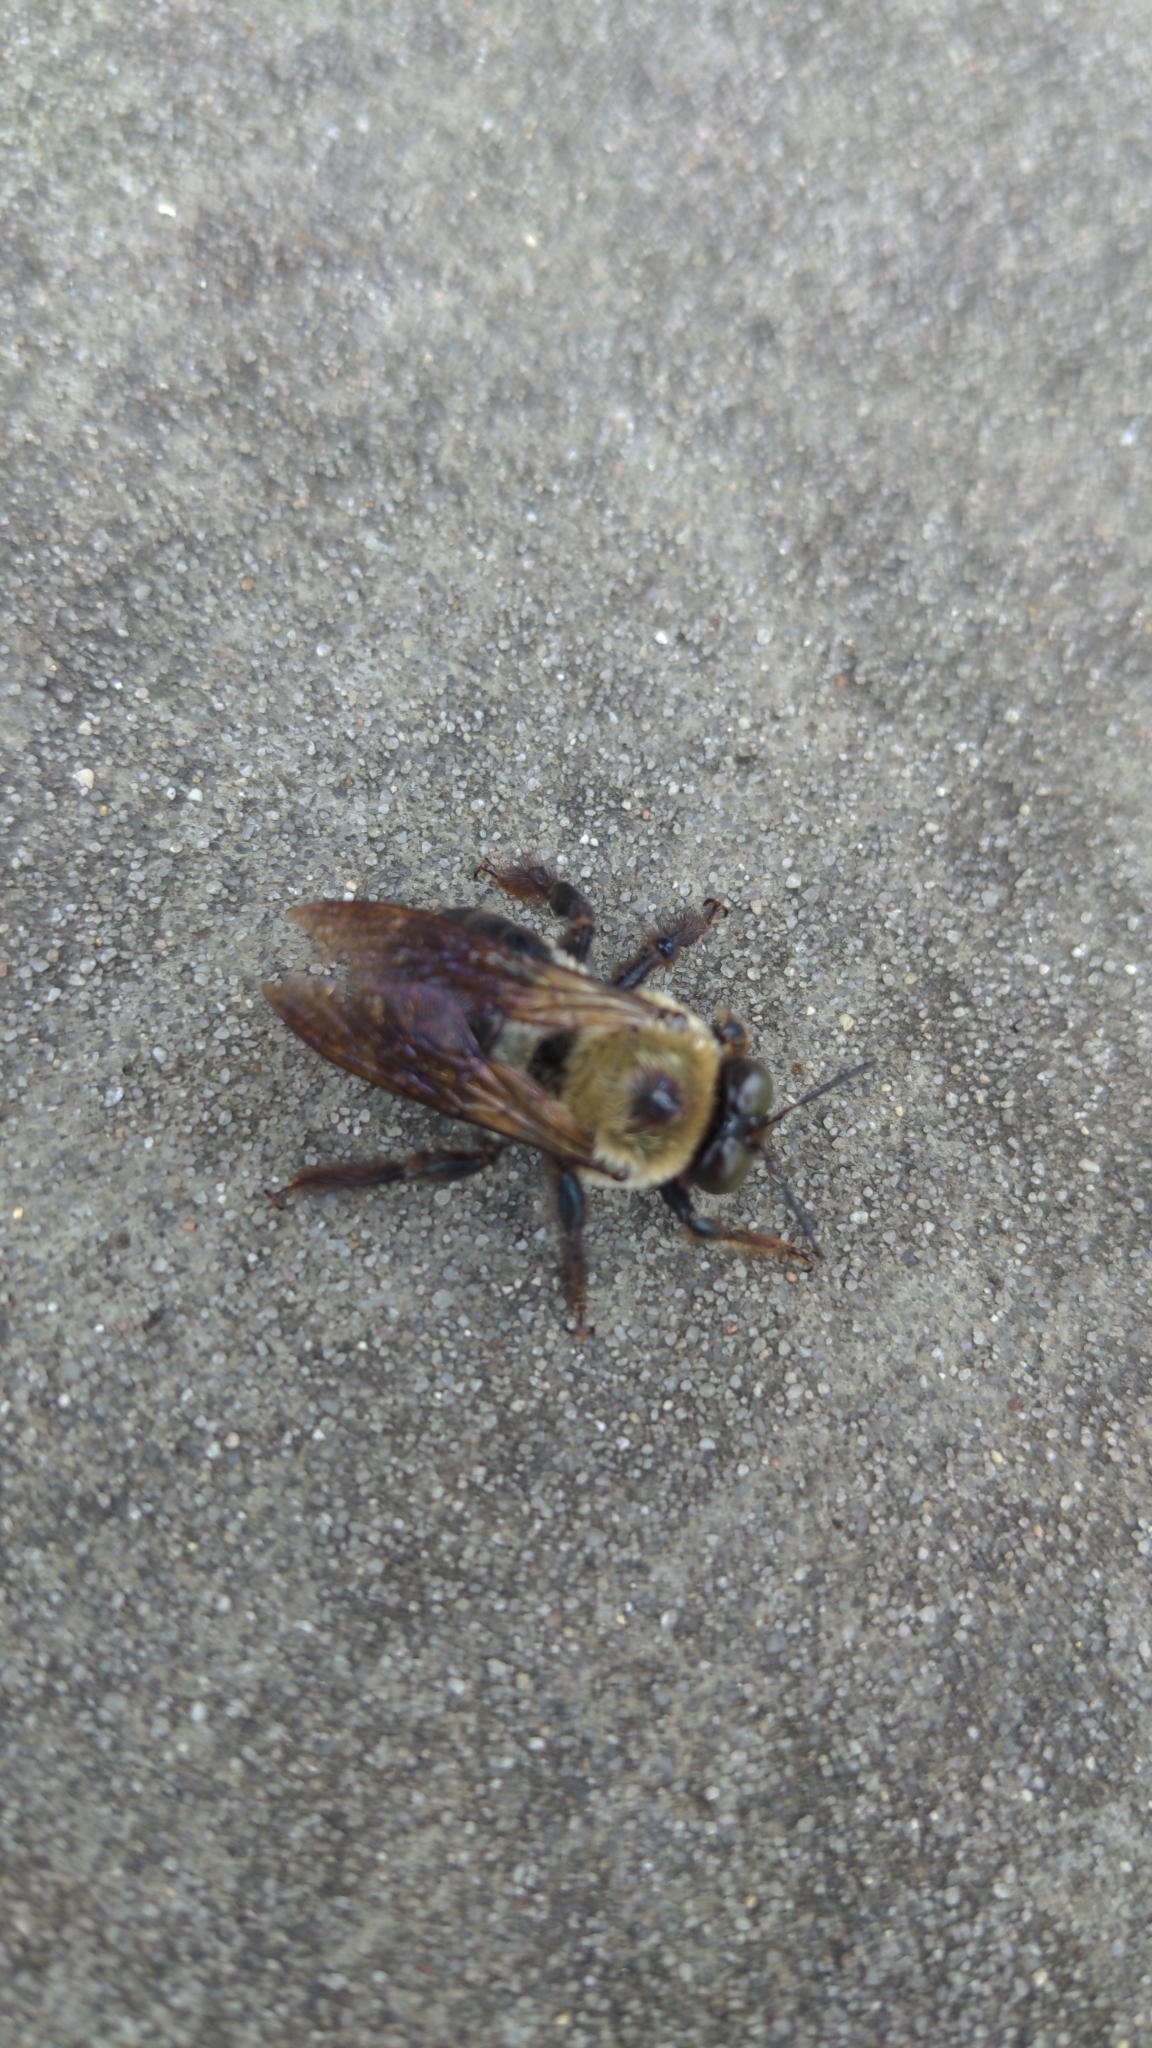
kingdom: Animalia
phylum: Arthropoda
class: Insecta
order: Hymenoptera
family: Apidae
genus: Xylocopa
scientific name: Xylocopa virginica
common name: Carpenter bee
